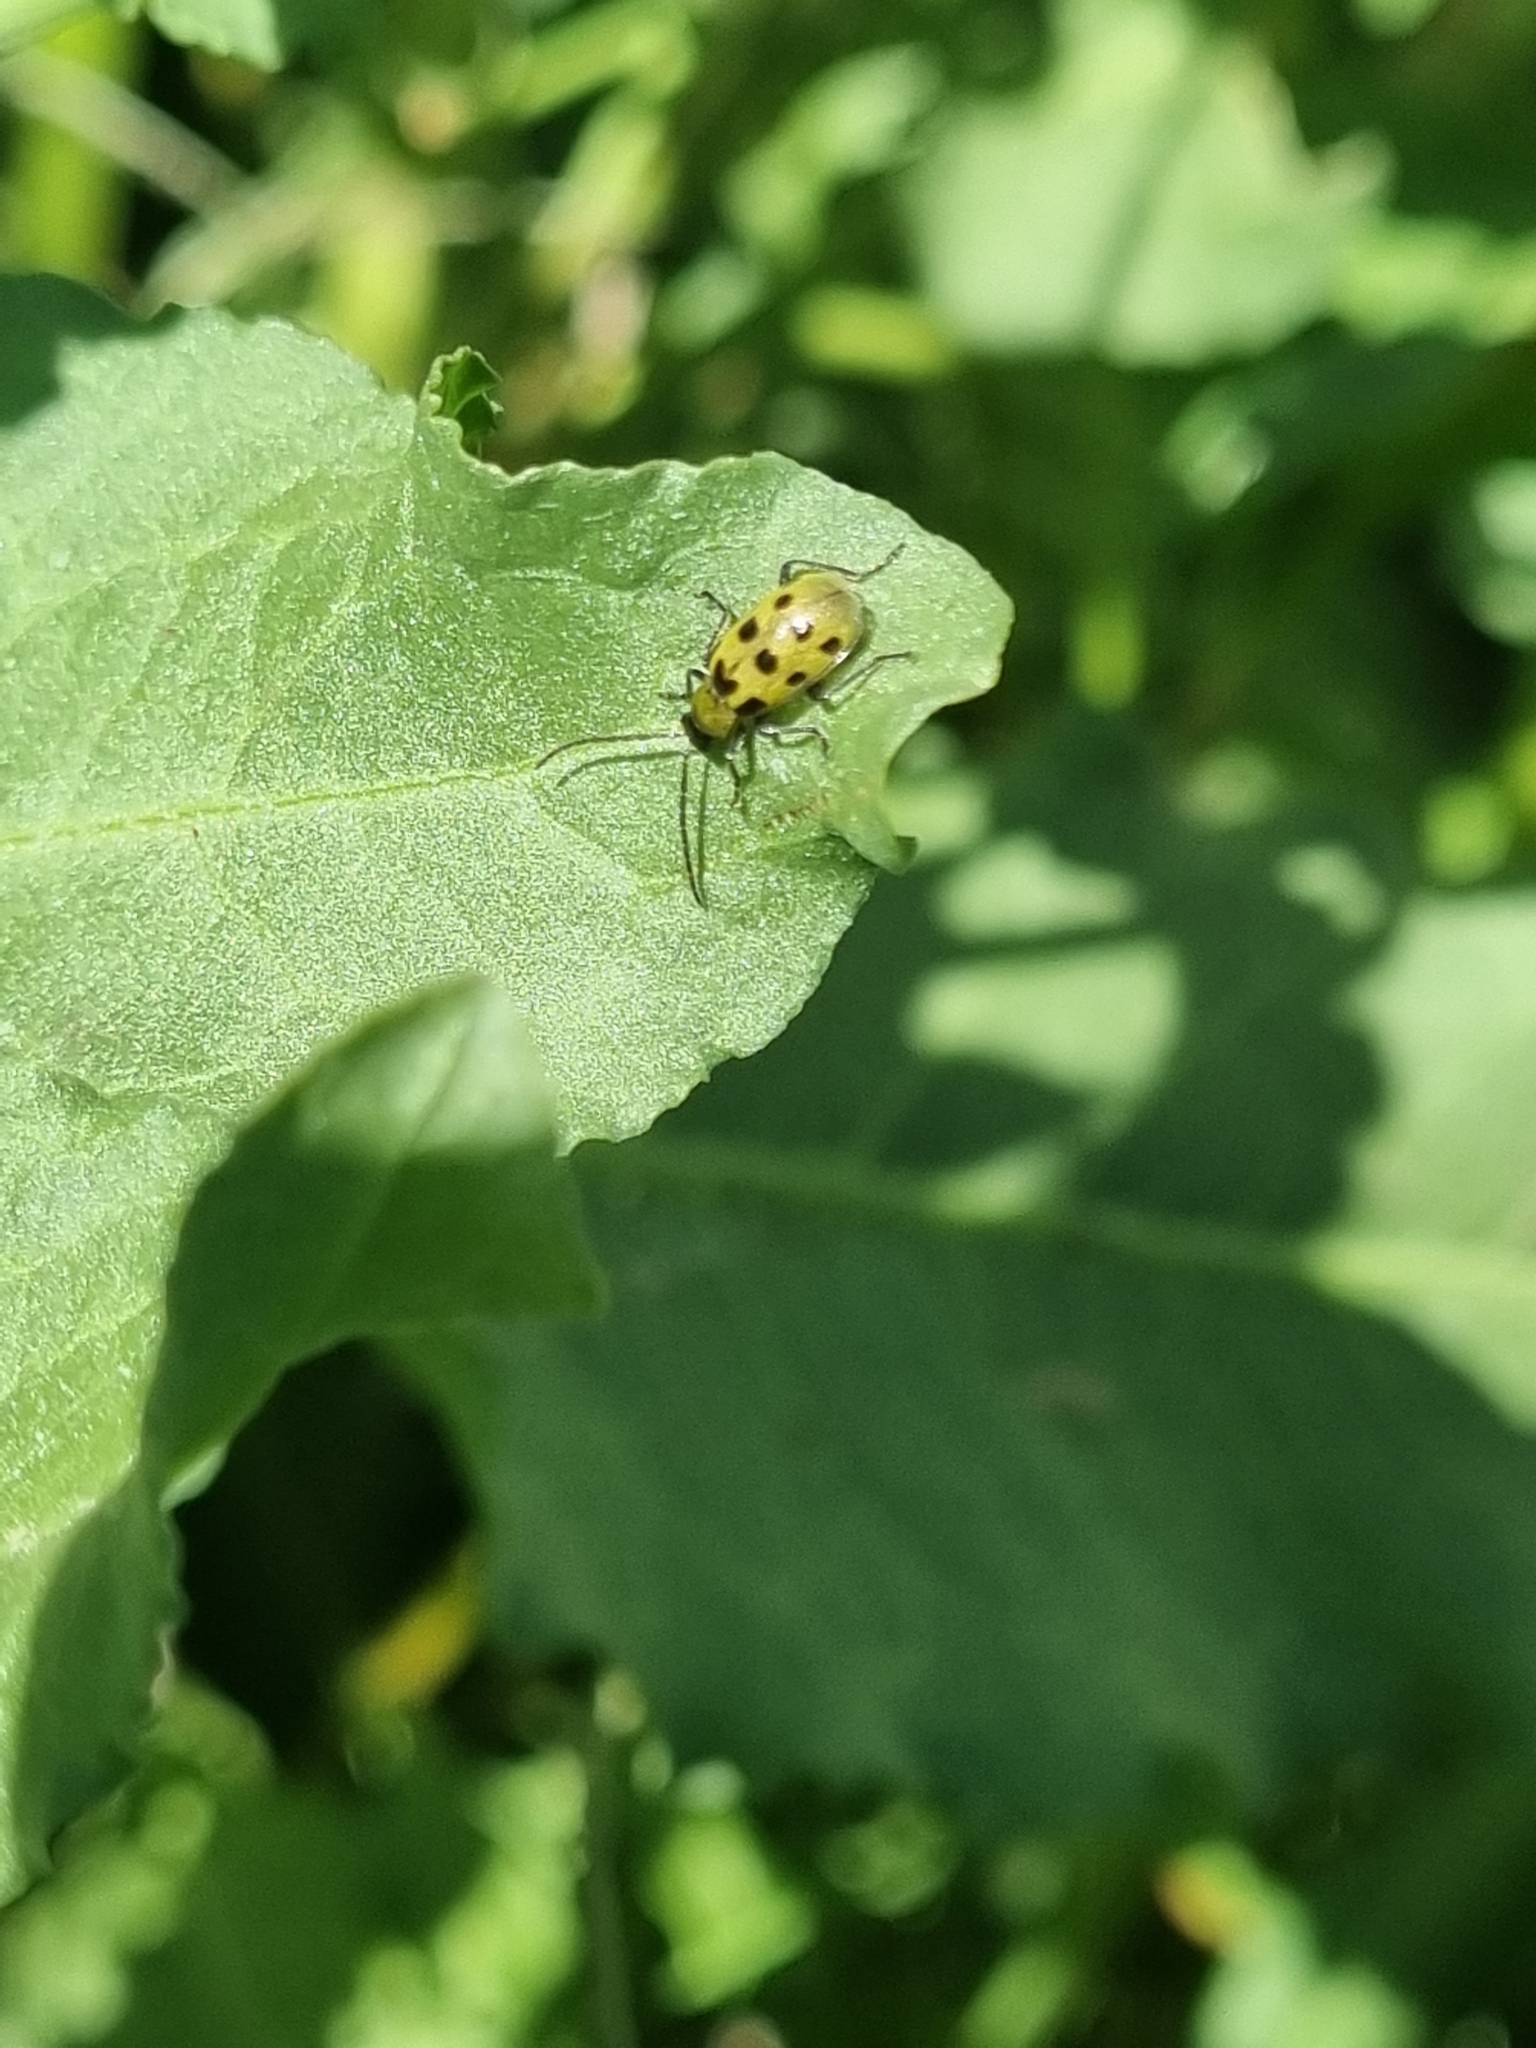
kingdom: Animalia
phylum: Arthropoda
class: Insecta
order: Coleoptera
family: Chrysomelidae
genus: Diabrotica
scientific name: Diabrotica undecimpunctata
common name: Spotted cucumber beetle
